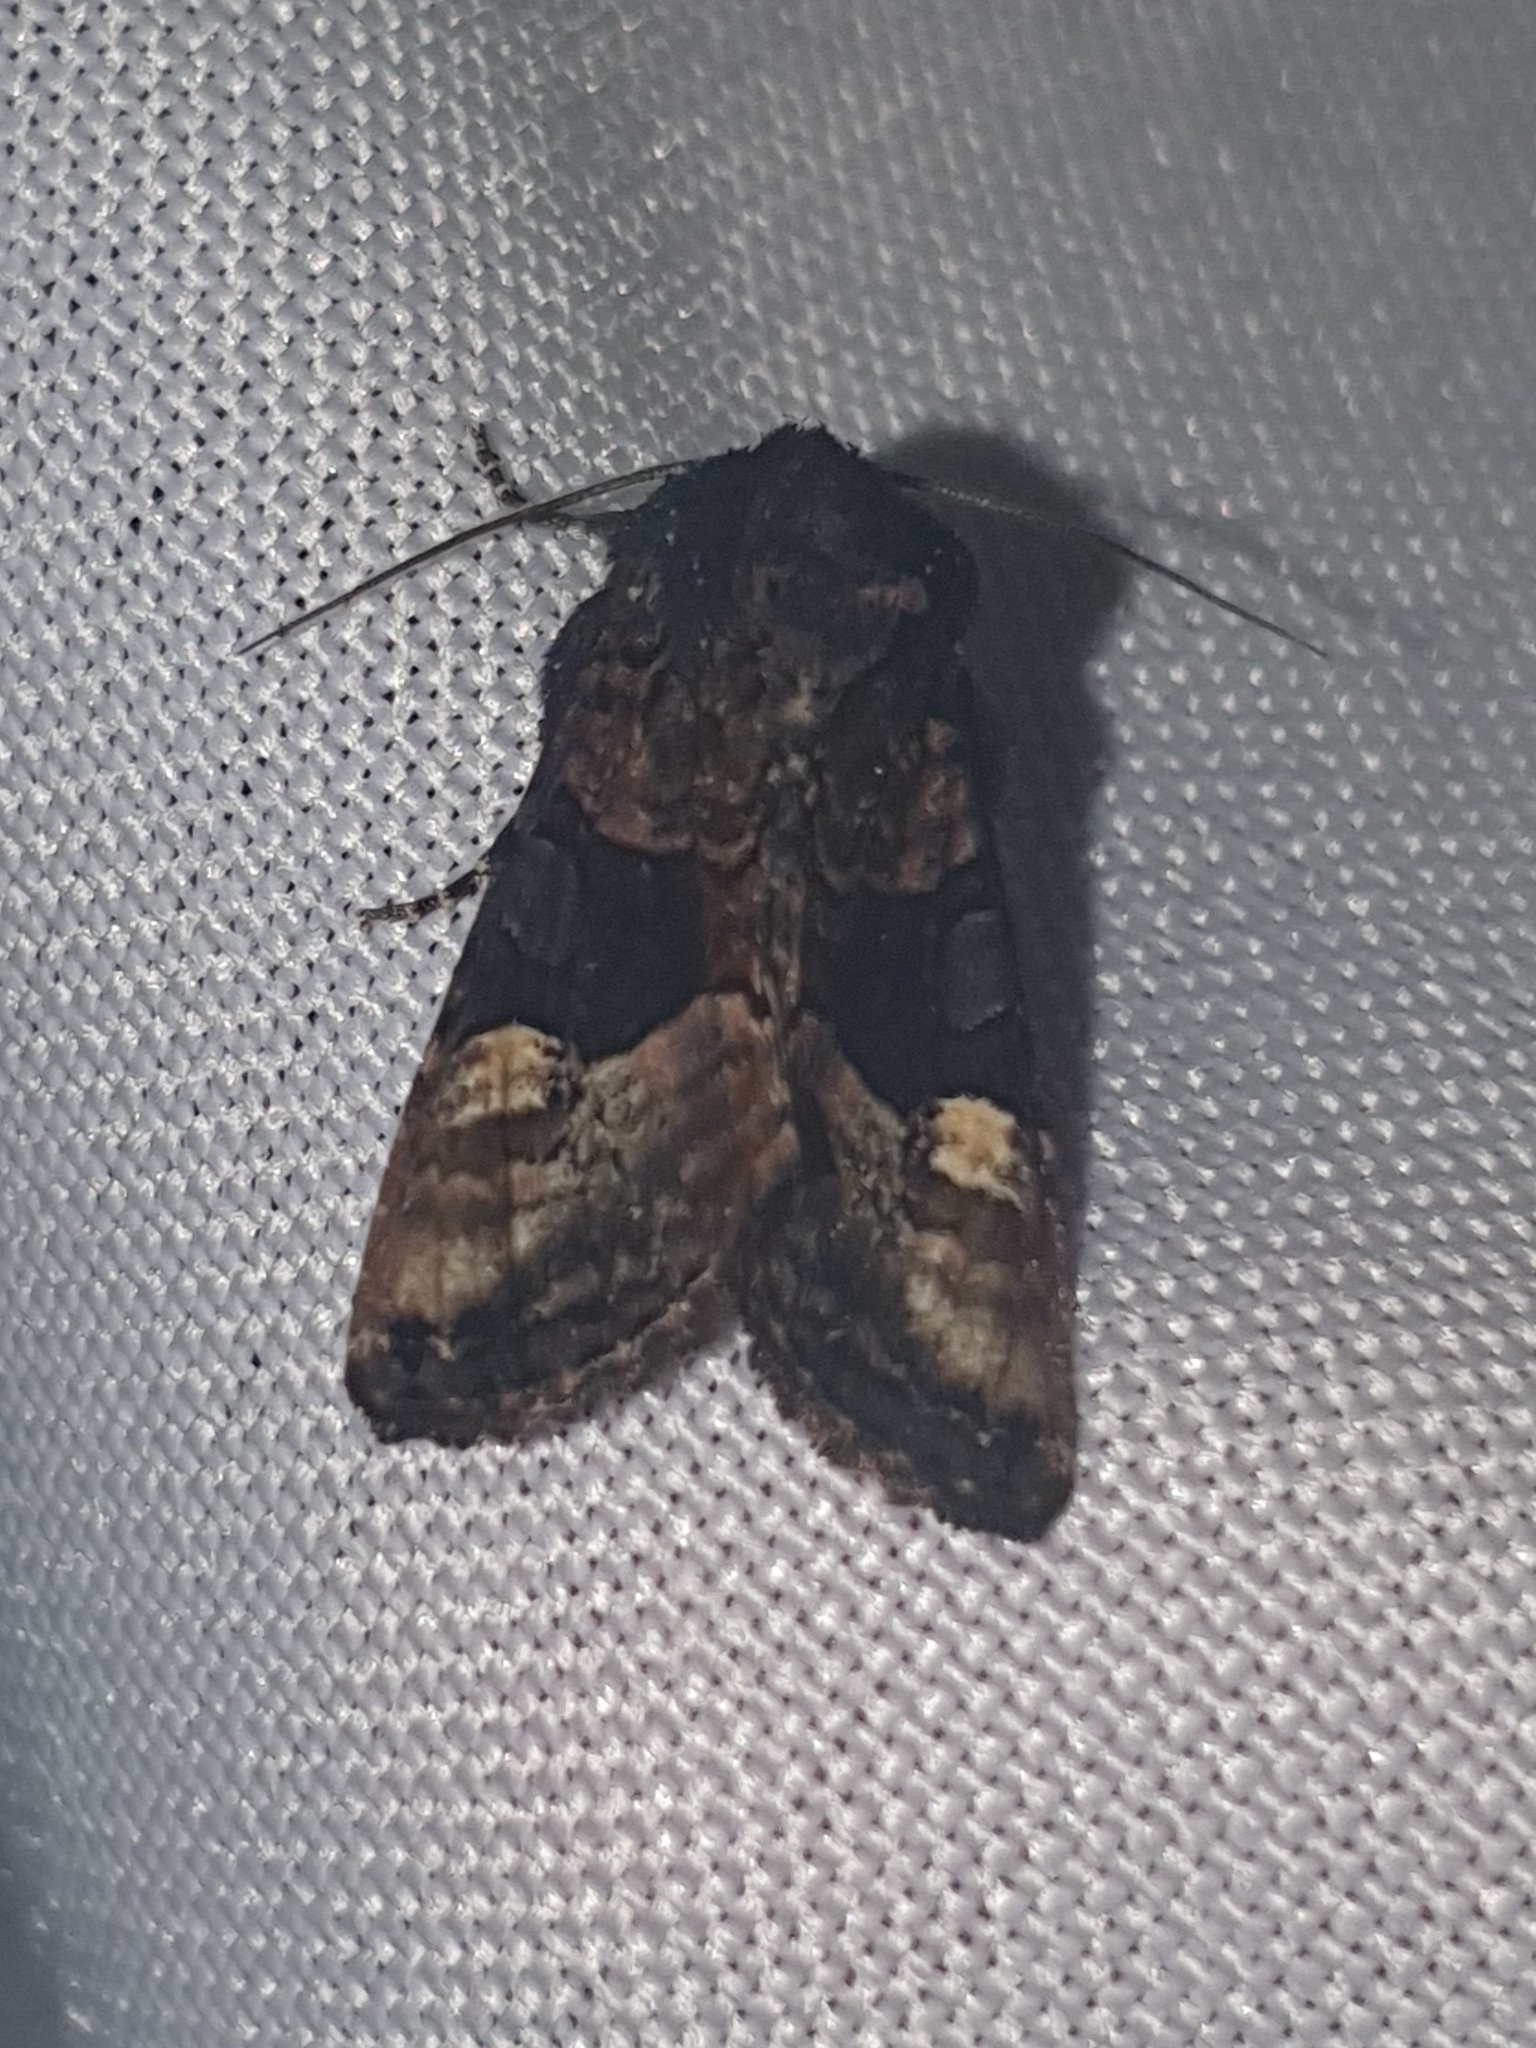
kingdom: Animalia
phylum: Arthropoda
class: Insecta
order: Lepidoptera
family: Noctuidae
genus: Euplexia
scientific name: Euplexia lucipara
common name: Small angle shades
